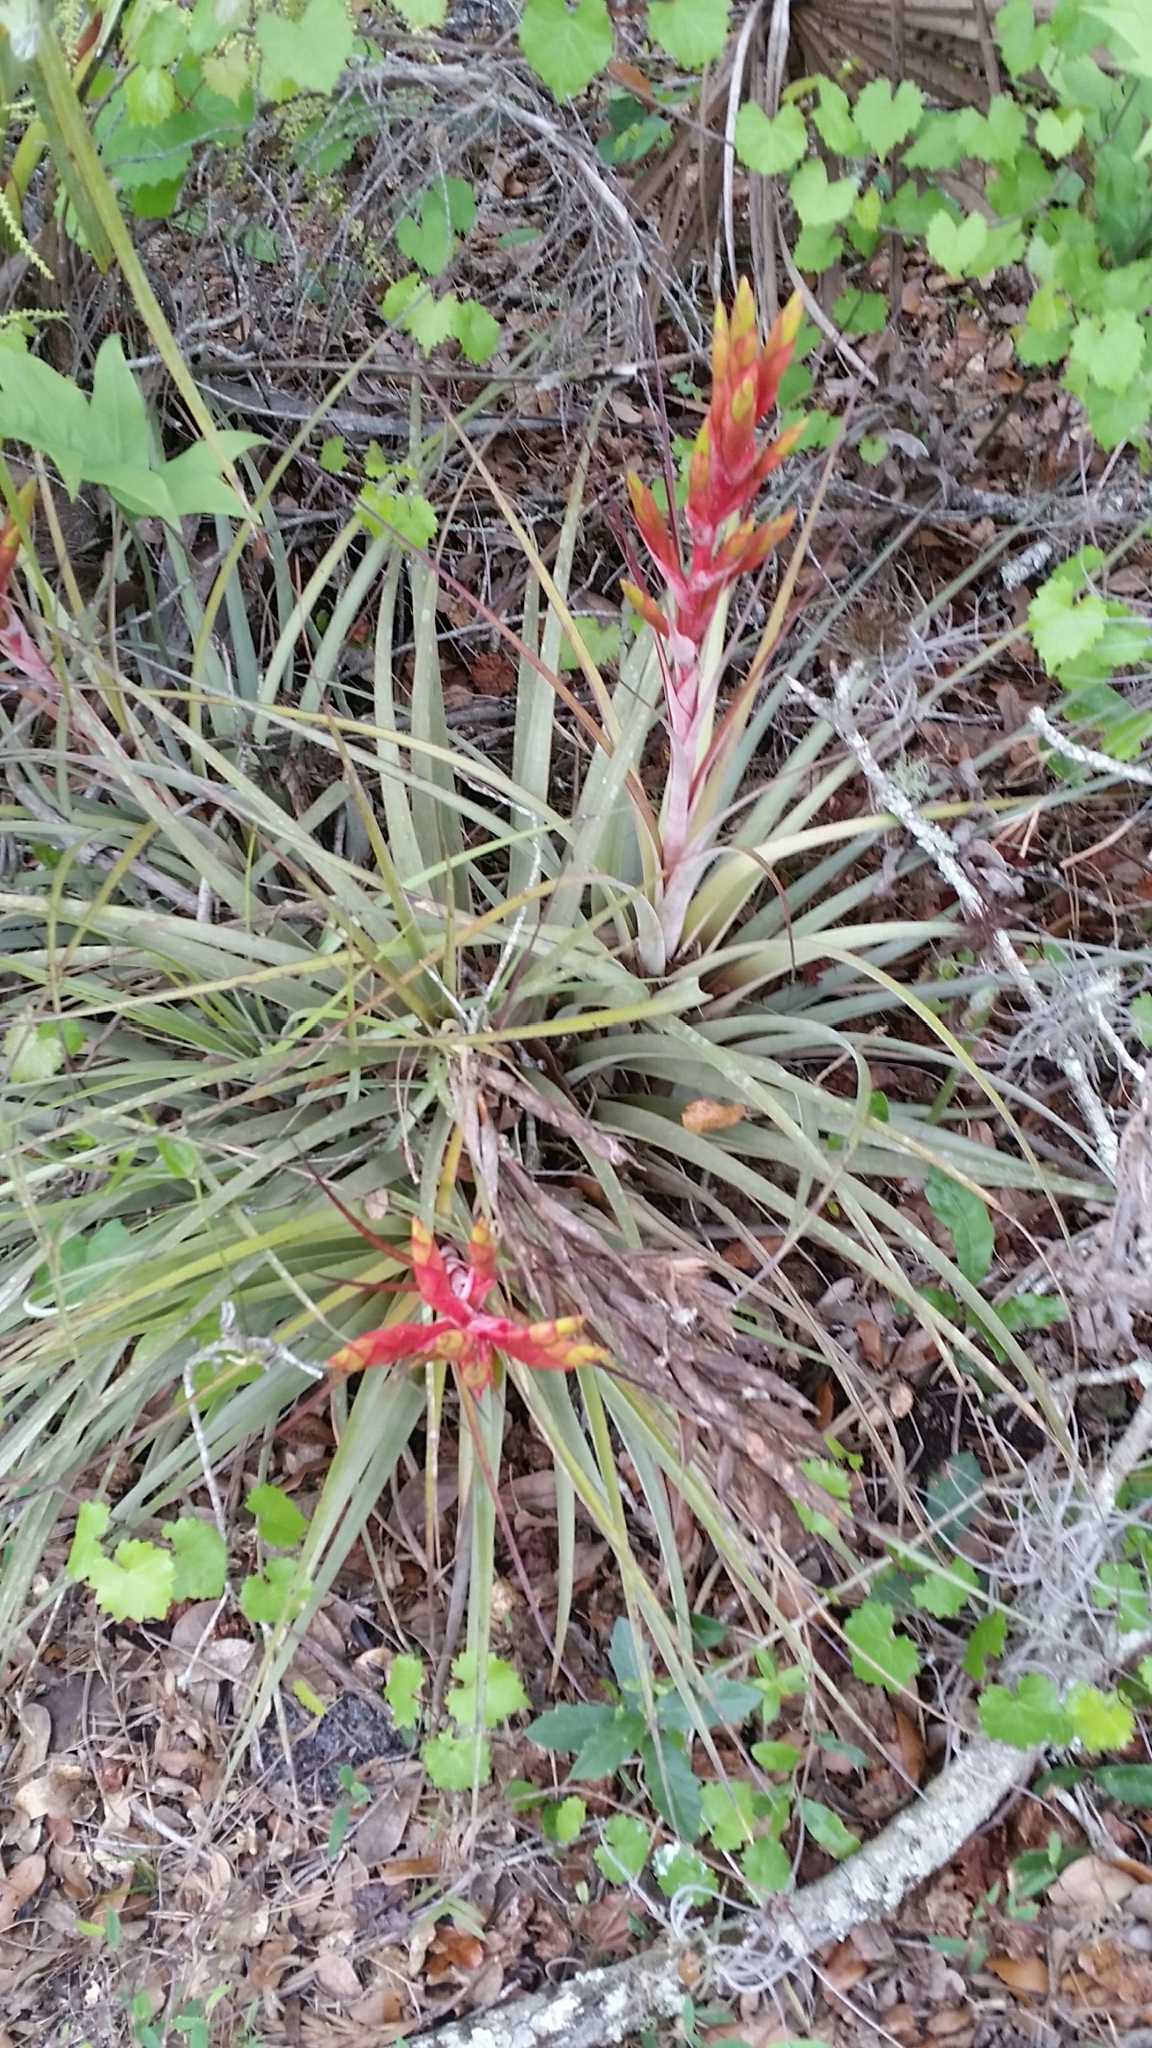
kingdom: Plantae
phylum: Tracheophyta
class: Liliopsida
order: Poales
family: Bromeliaceae
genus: Tillandsia
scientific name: Tillandsia fasciculata
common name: Giant airplant
